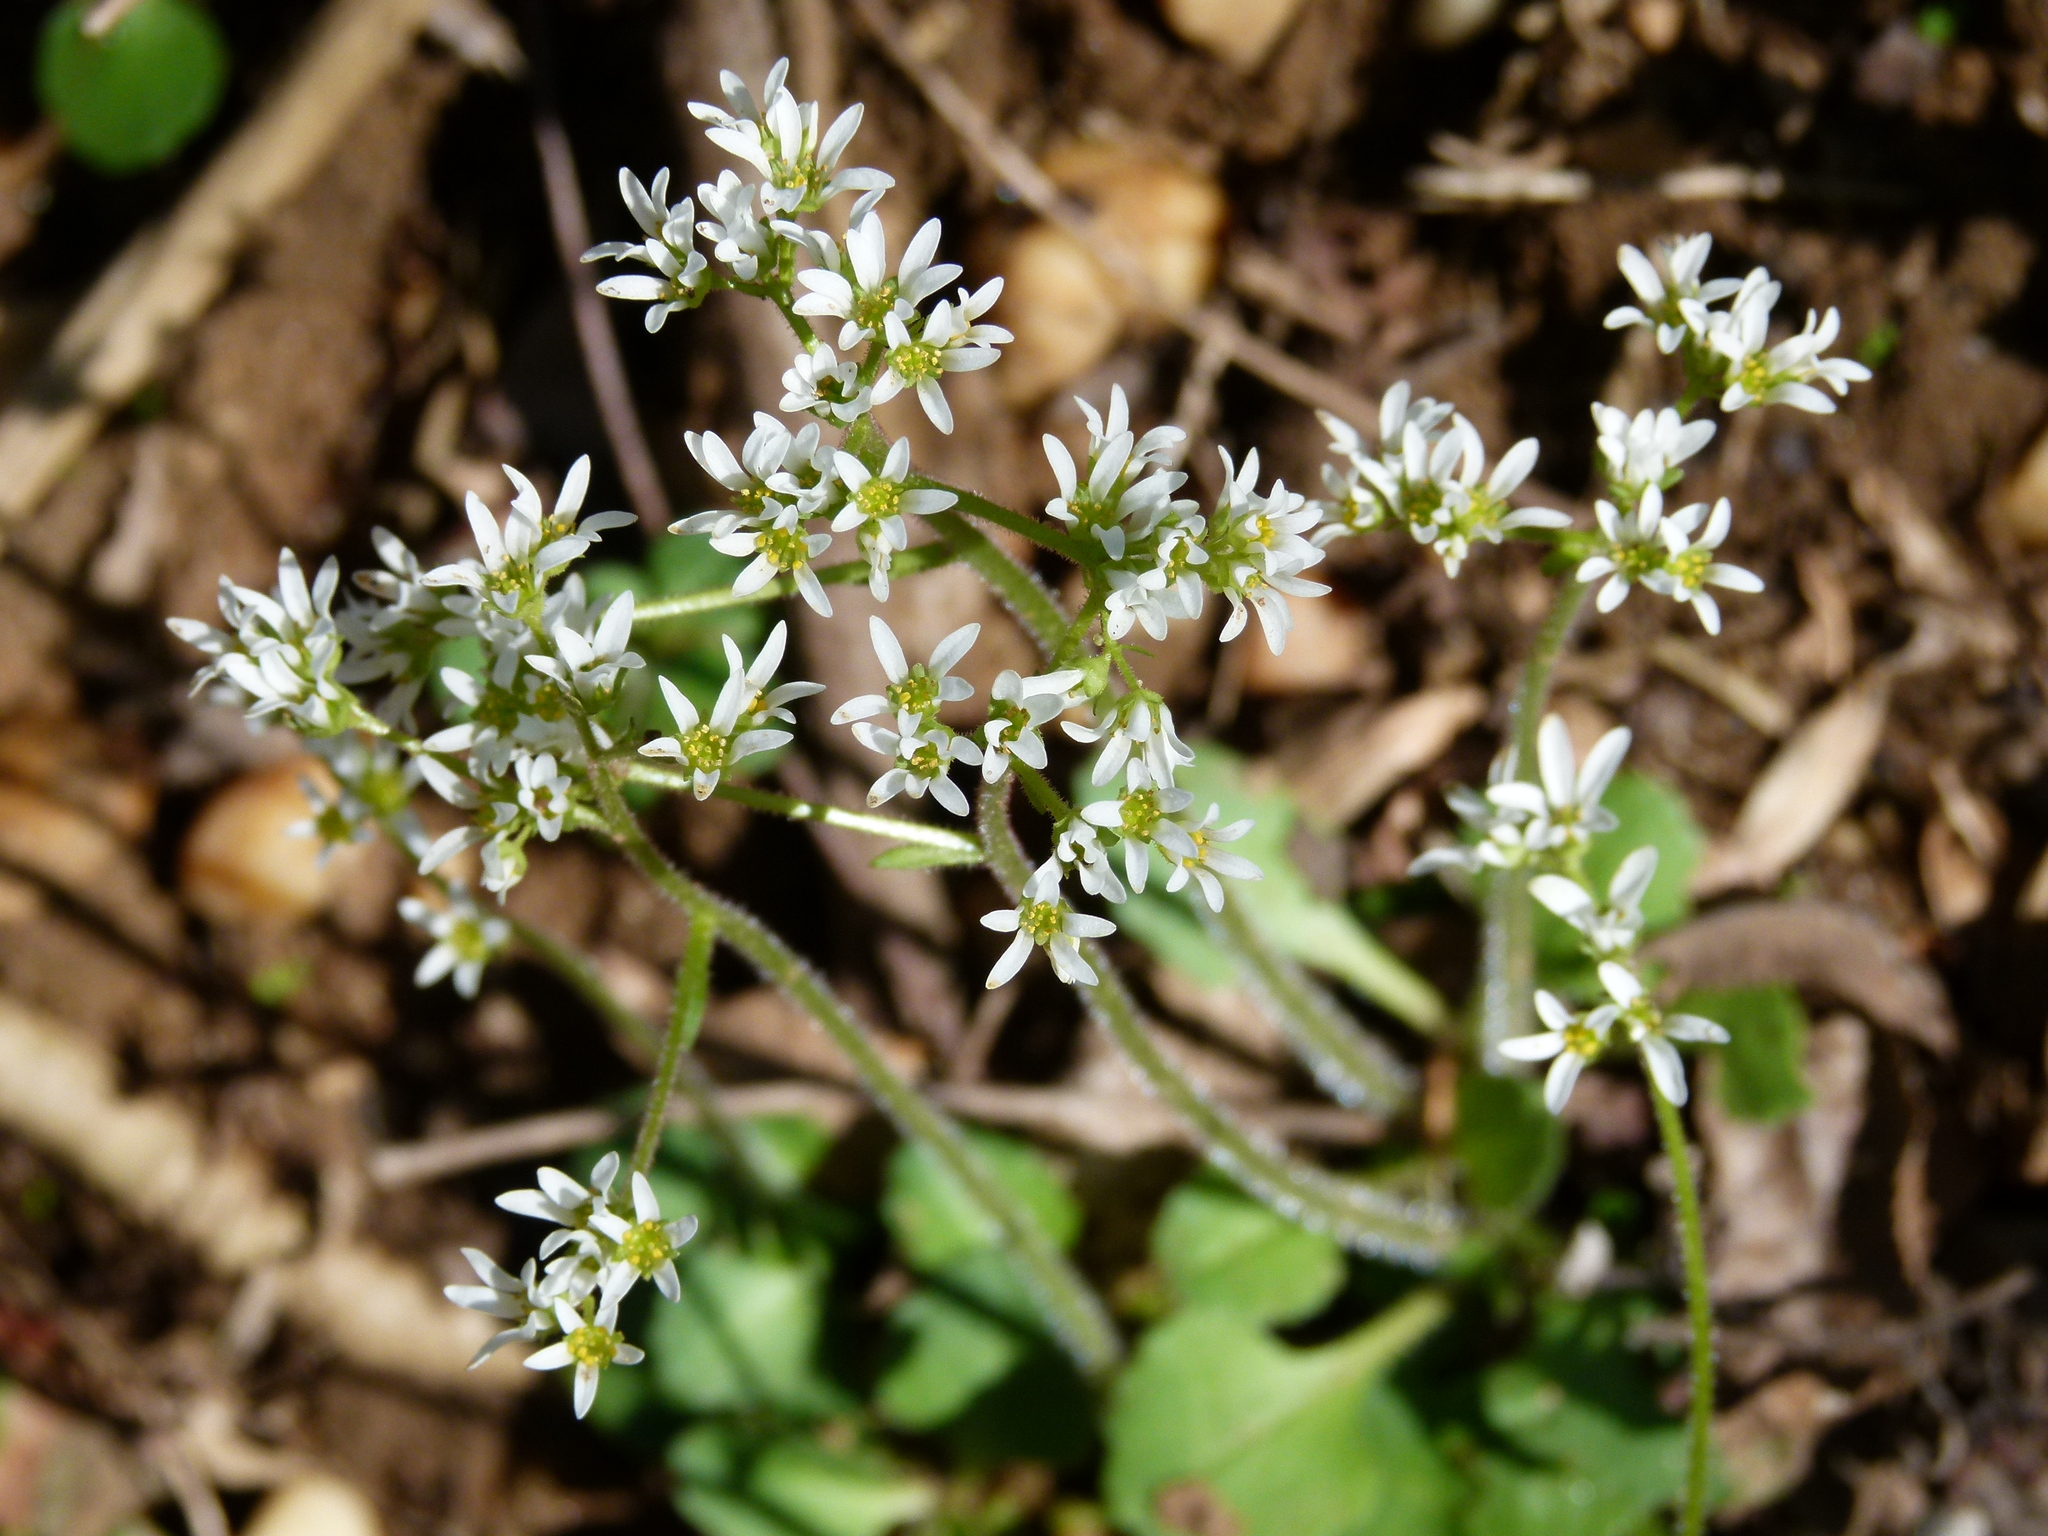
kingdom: Plantae
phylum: Tracheophyta
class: Magnoliopsida
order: Saxifragales
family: Saxifragaceae
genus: Micranthes
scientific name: Micranthes virginiensis
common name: Early saxifrage
